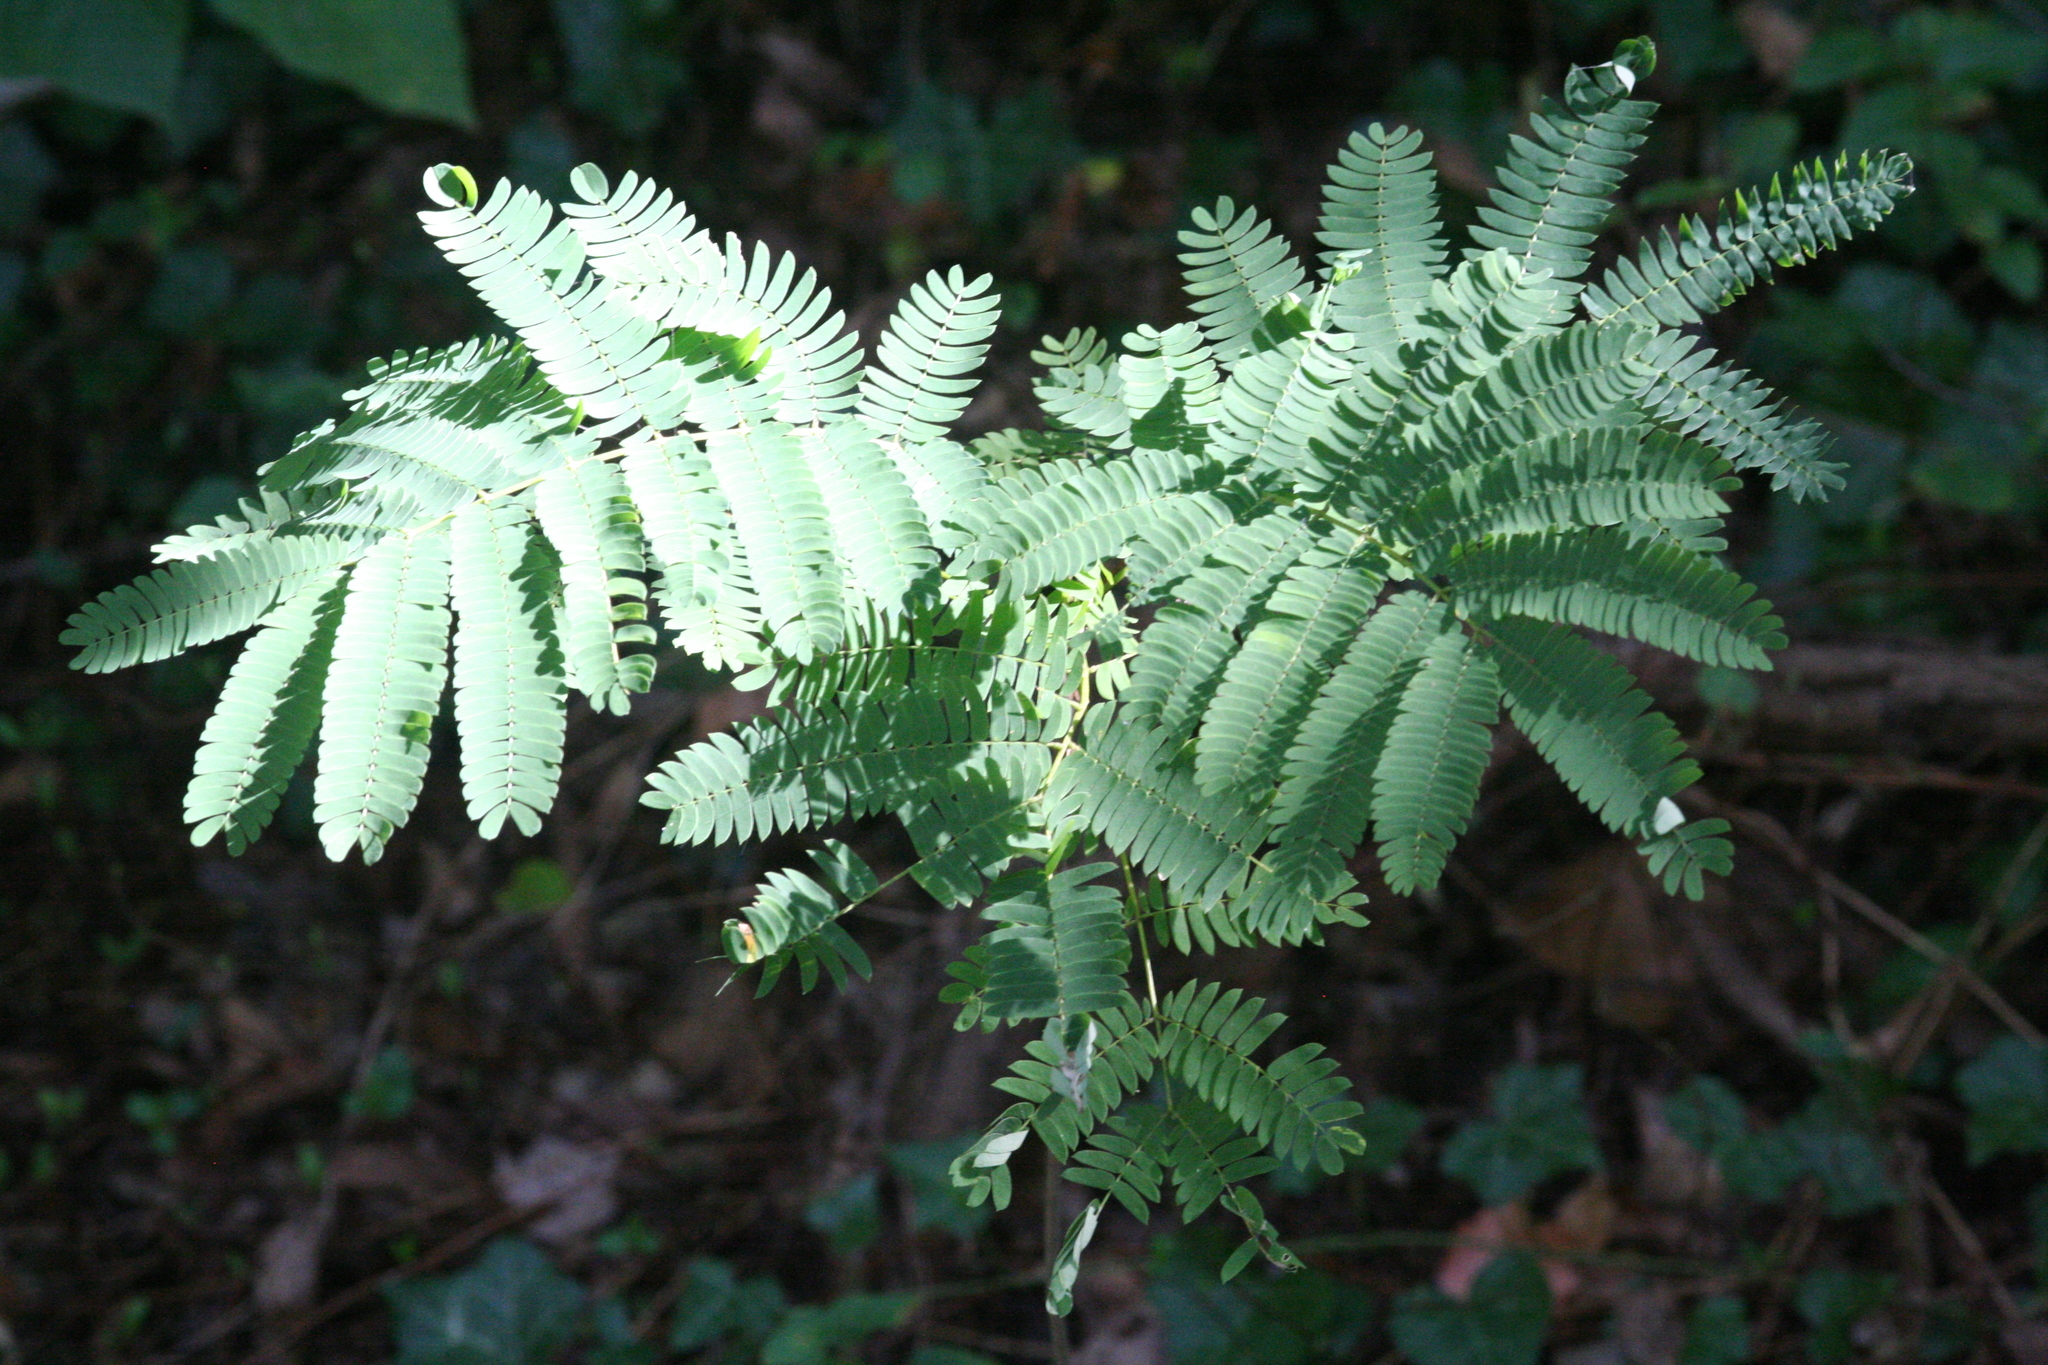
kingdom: Plantae
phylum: Tracheophyta
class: Magnoliopsida
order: Fabales
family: Fabaceae
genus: Albizia
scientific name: Albizia julibrissin
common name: Silktree
